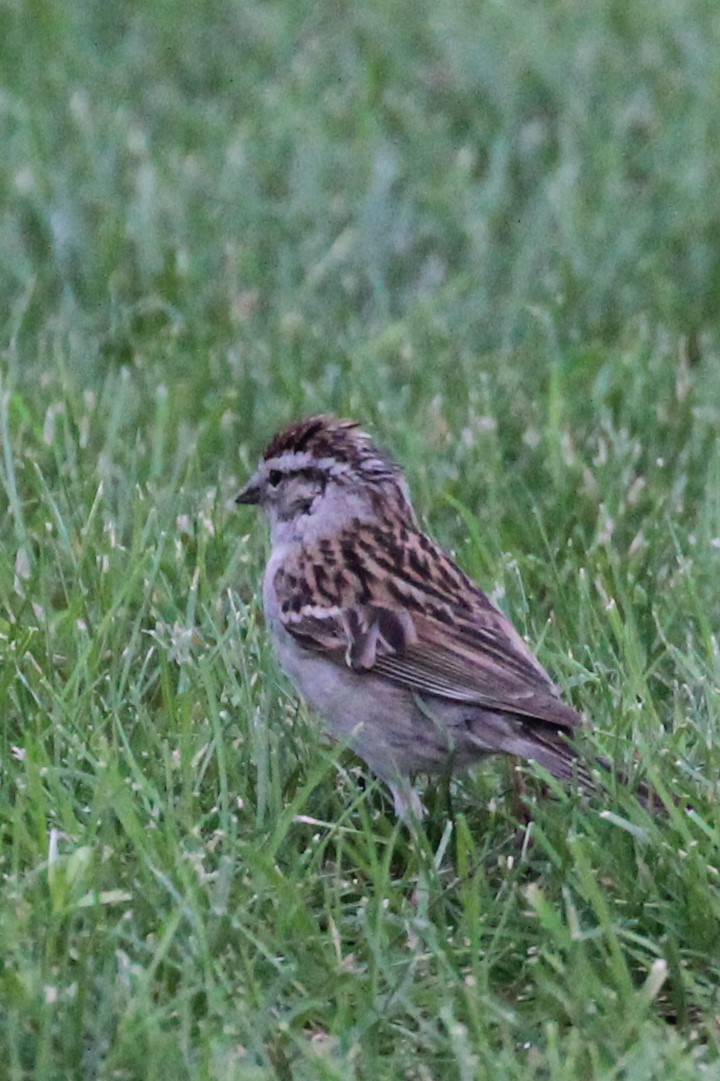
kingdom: Animalia
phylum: Chordata
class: Aves
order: Passeriformes
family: Passerellidae
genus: Spizella
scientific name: Spizella passerina
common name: Chipping sparrow
